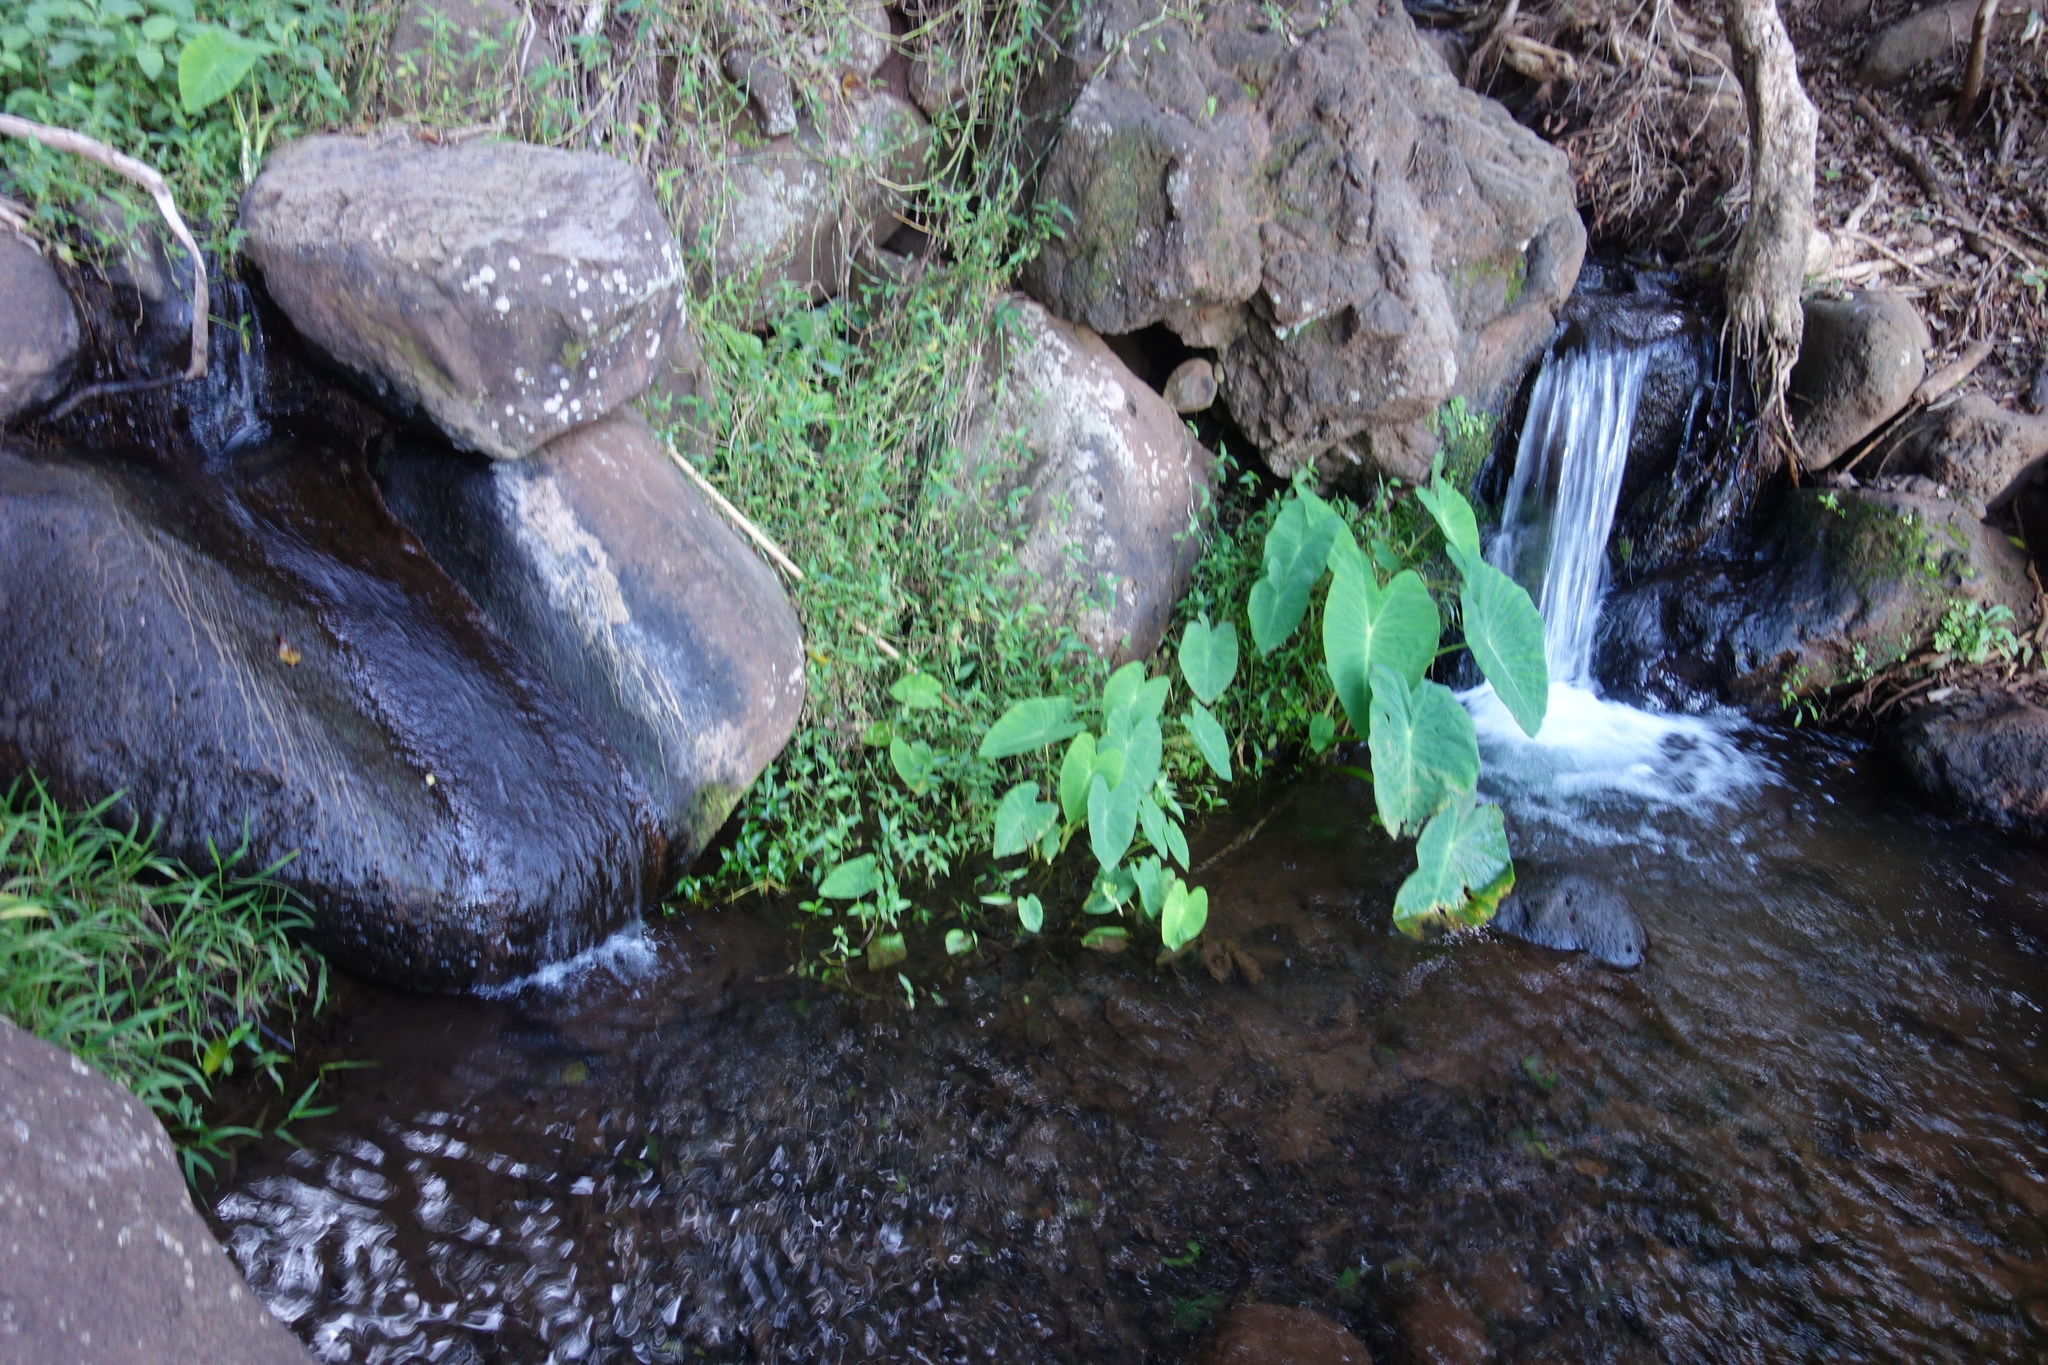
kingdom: Plantae
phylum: Tracheophyta
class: Liliopsida
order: Alismatales
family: Araceae
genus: Colocasia
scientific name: Colocasia esculenta
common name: Taro
